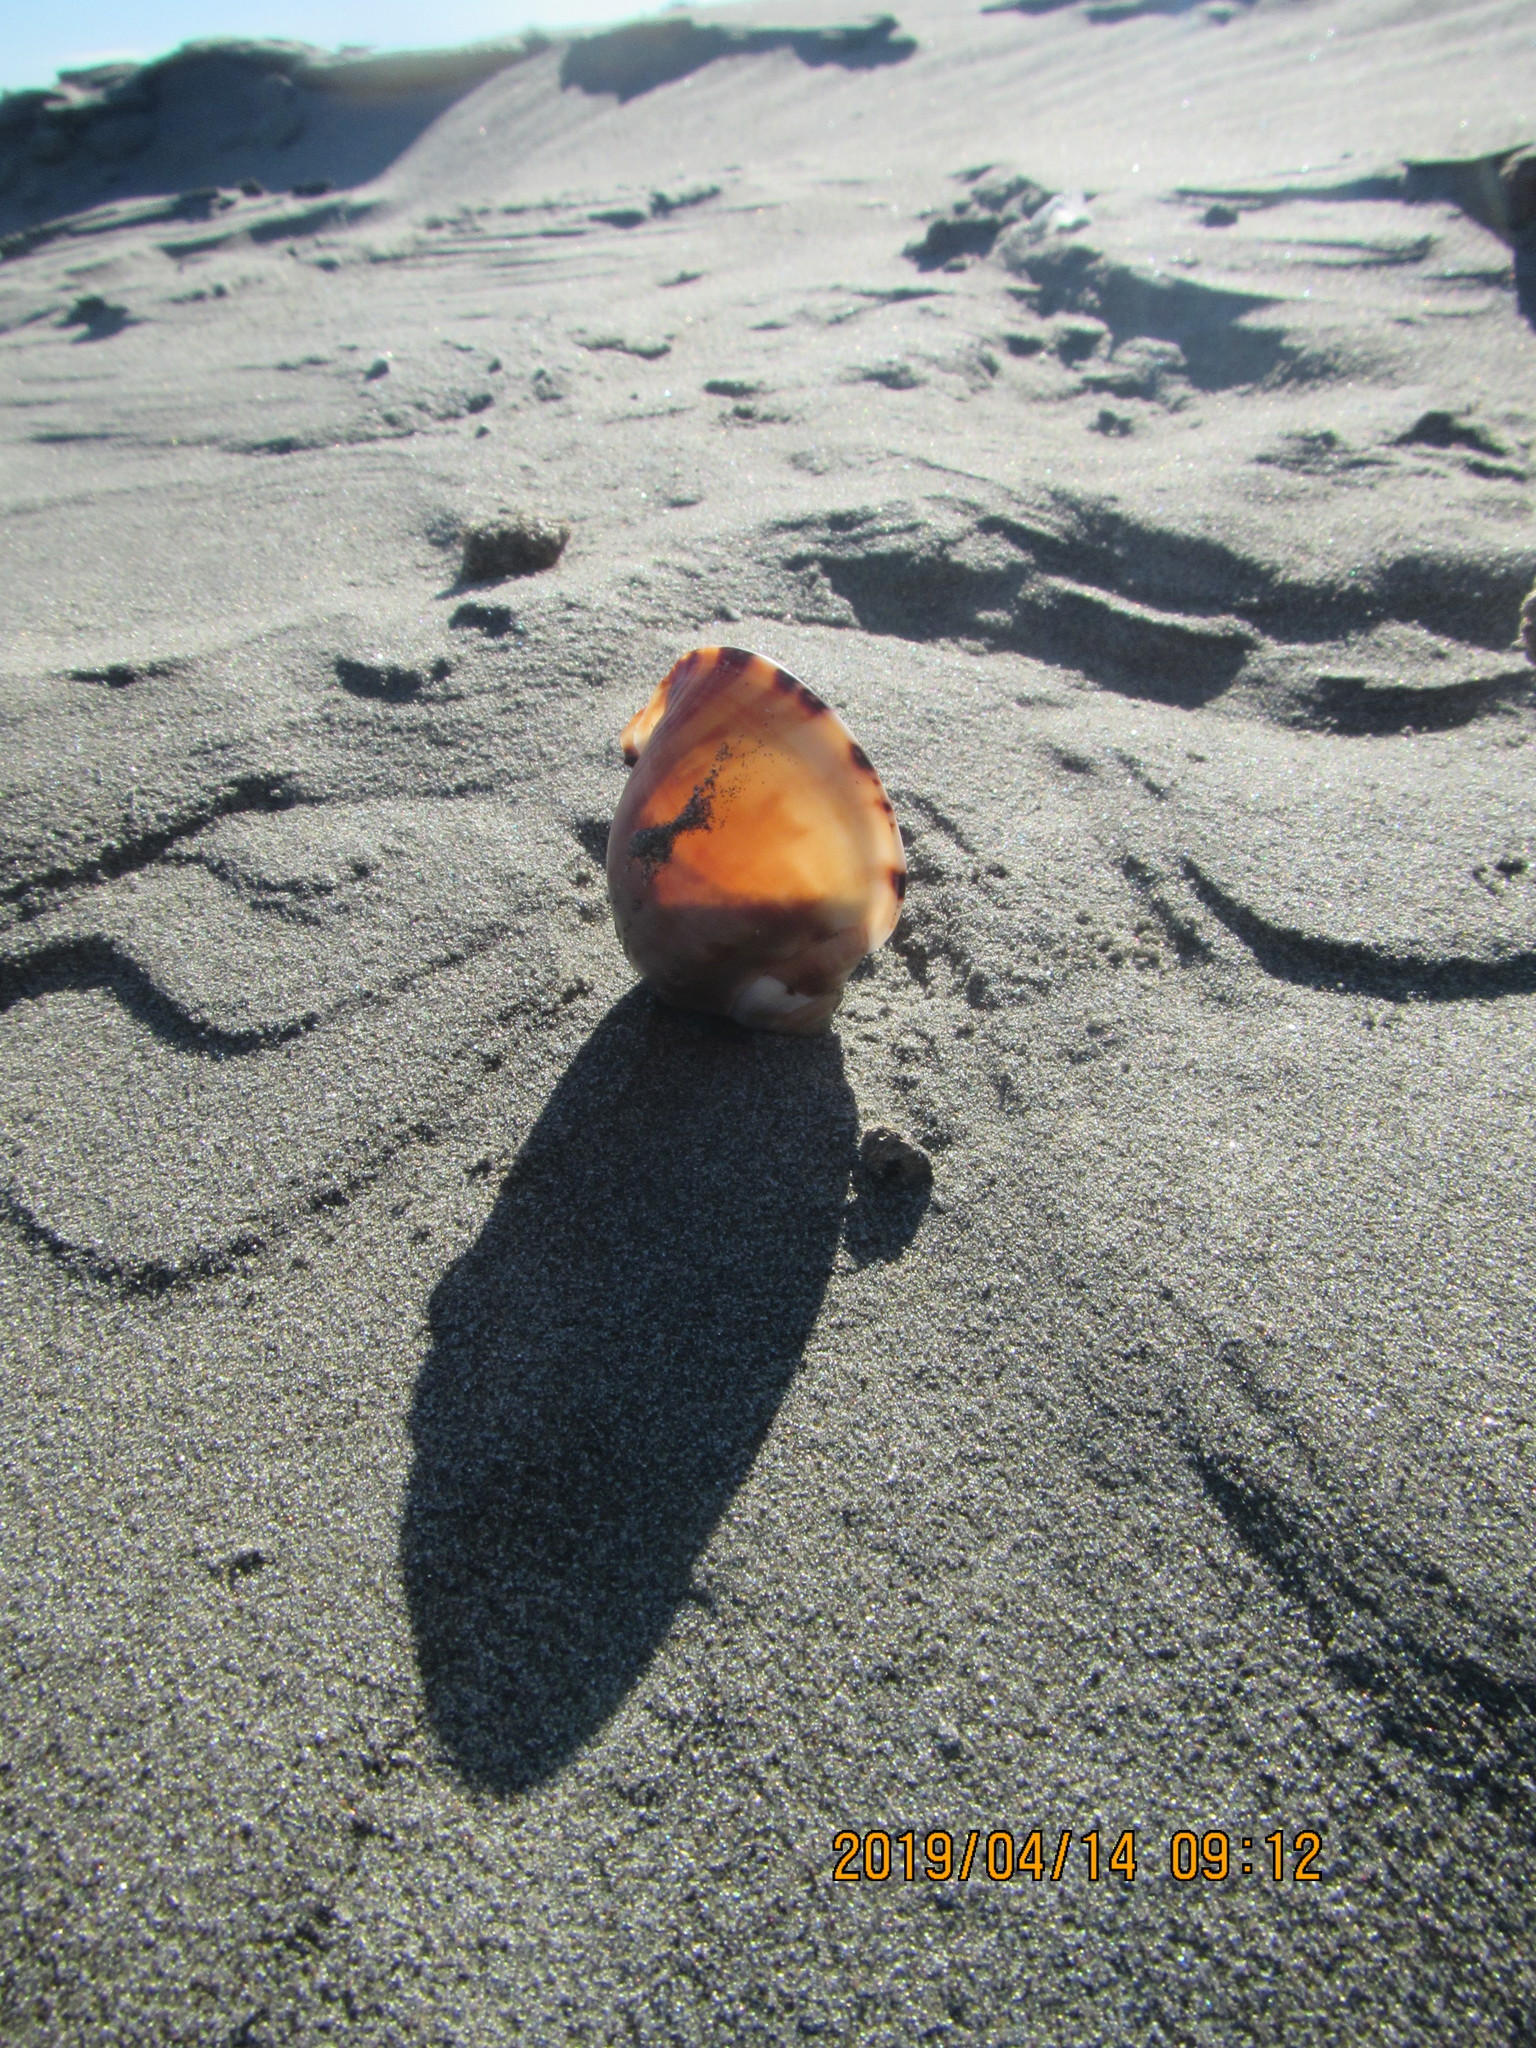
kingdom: Animalia
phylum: Mollusca
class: Gastropoda
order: Littorinimorpha
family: Cassidae
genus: Semicassis
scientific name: Semicassis pyrum
